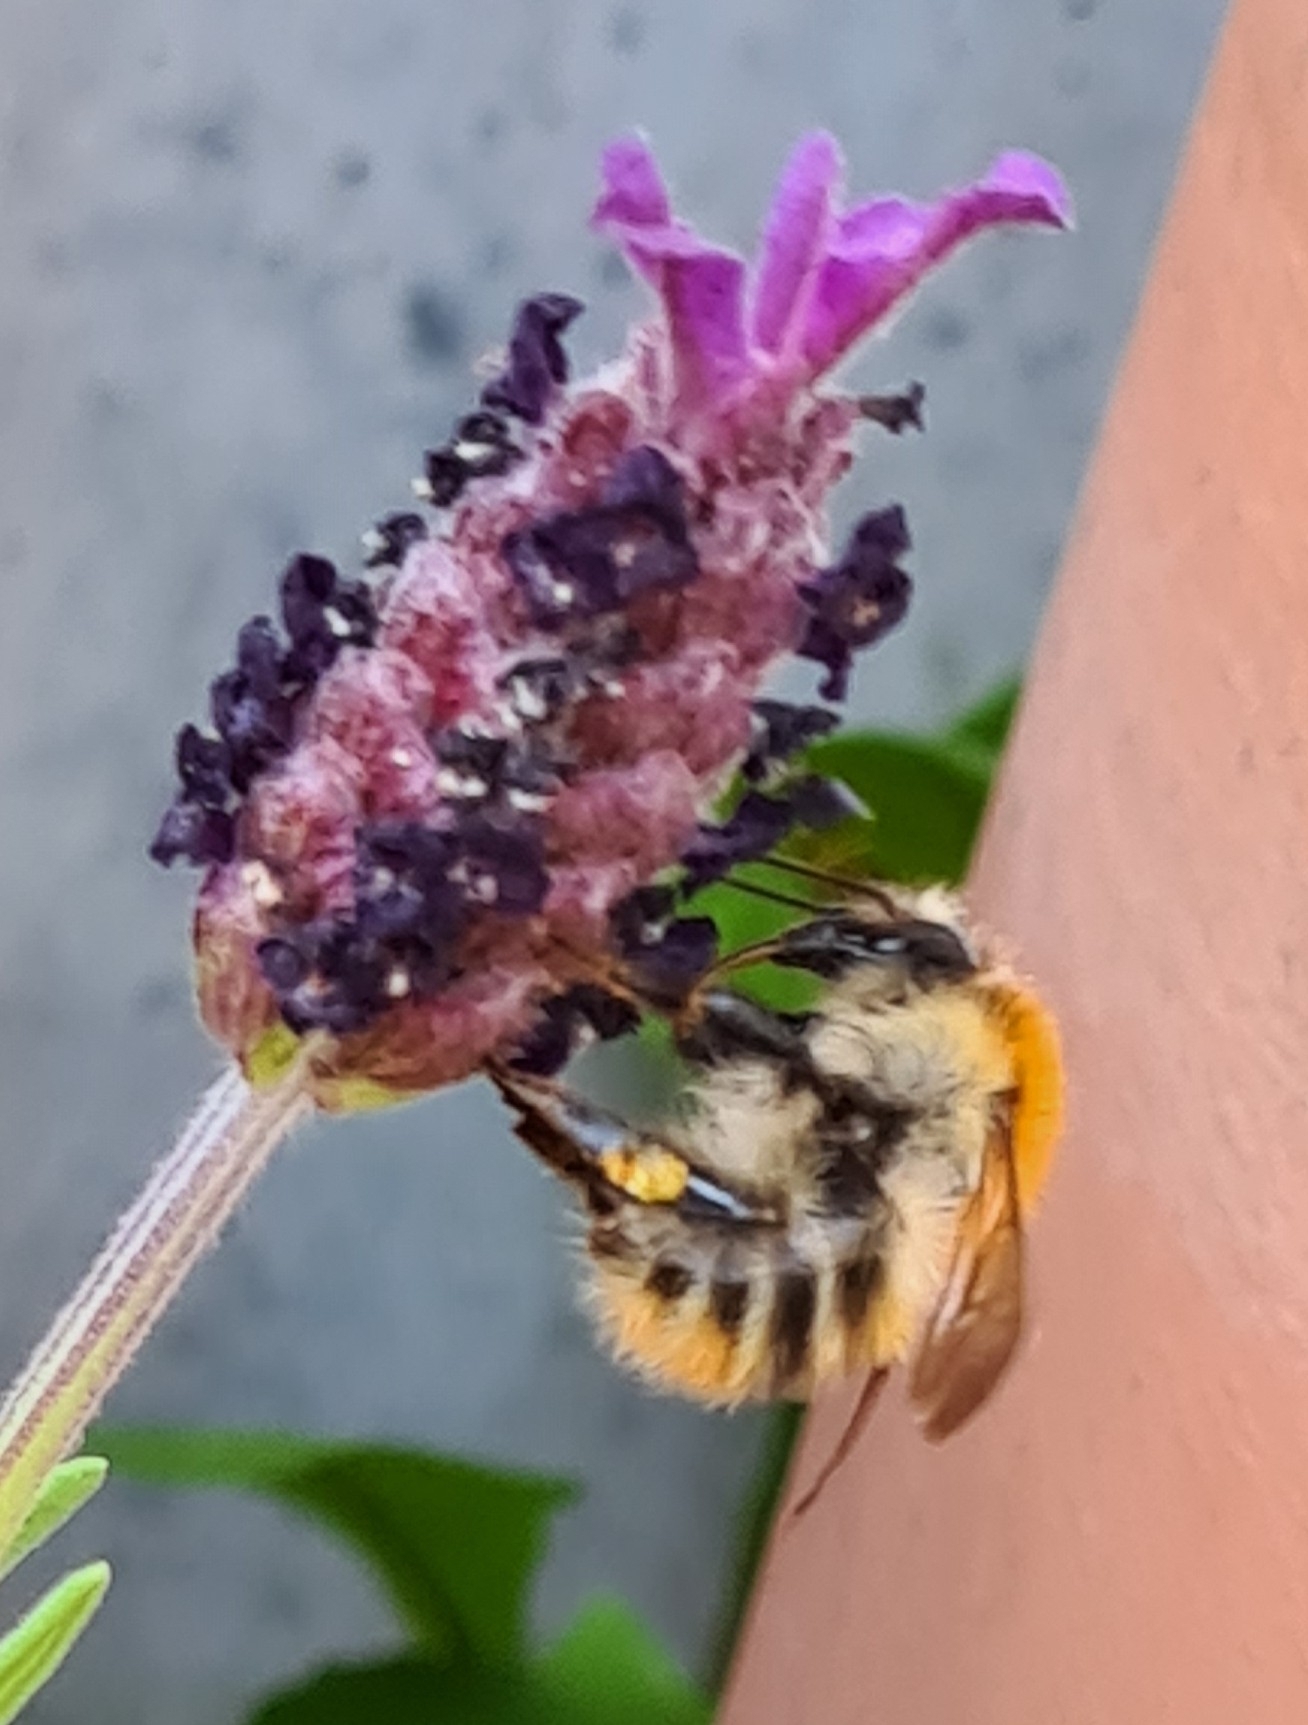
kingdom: Animalia
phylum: Arthropoda
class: Insecta
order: Hymenoptera
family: Apidae
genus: Bombus
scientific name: Bombus pascuorum
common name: Common carder bee
